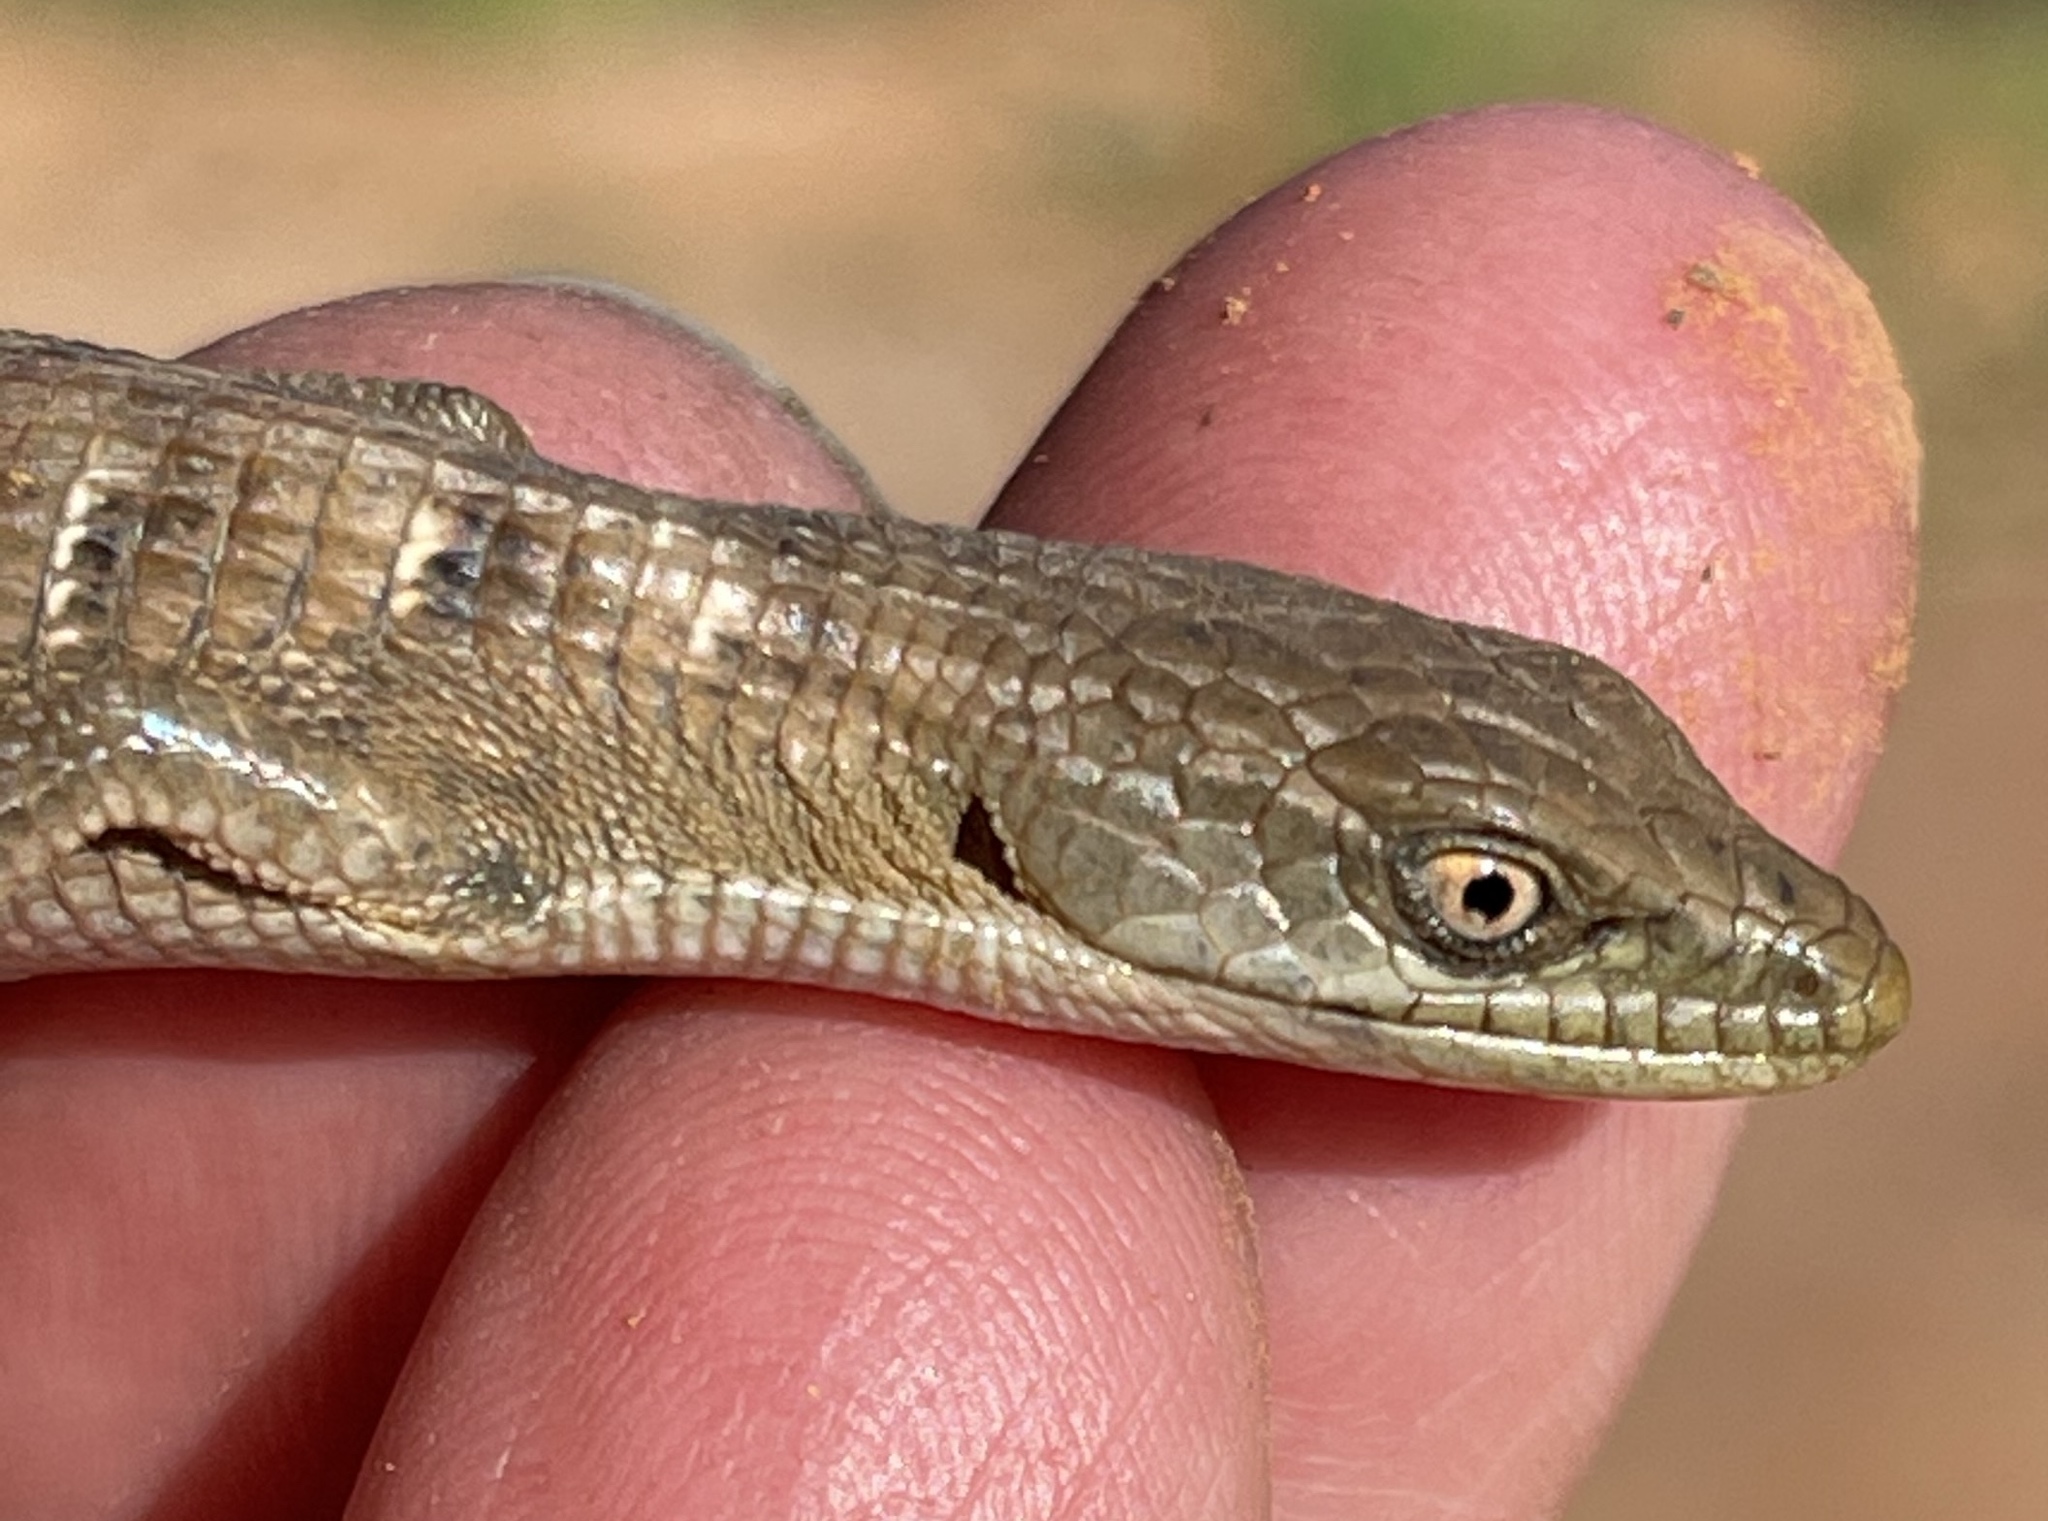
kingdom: Animalia
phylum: Chordata
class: Squamata
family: Anguidae
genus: Elgaria
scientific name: Elgaria multicarinata
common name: Southern alligator lizard
